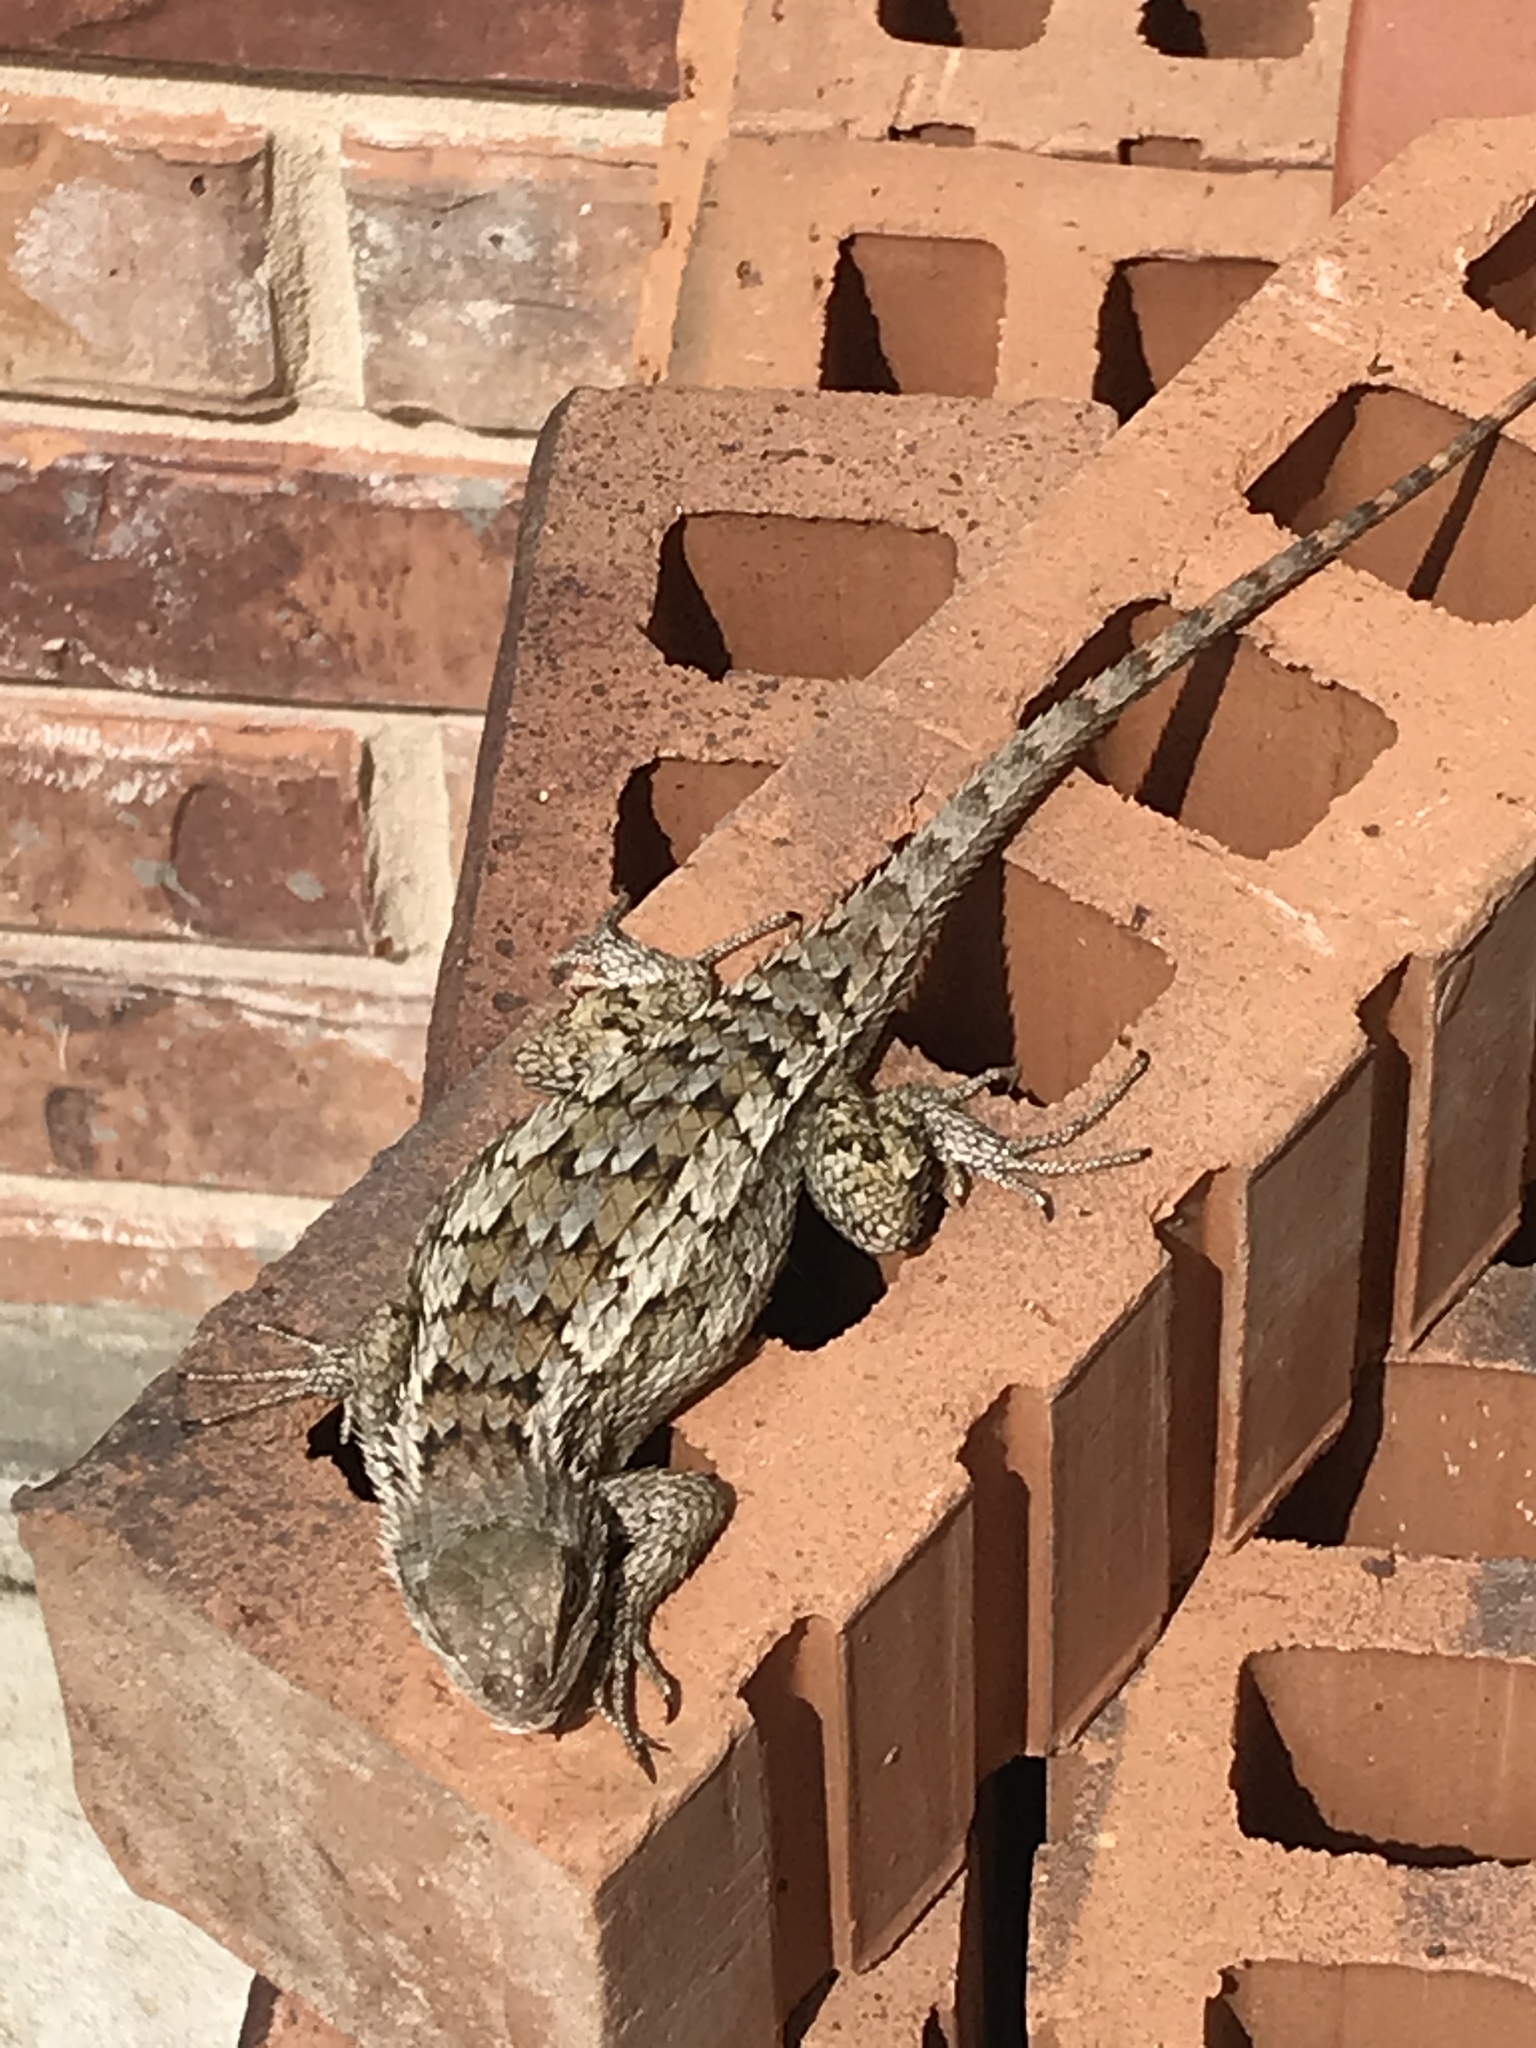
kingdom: Animalia
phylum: Chordata
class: Squamata
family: Phrynosomatidae
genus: Sceloporus
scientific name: Sceloporus olivaceus
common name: Texas spiny lizard
